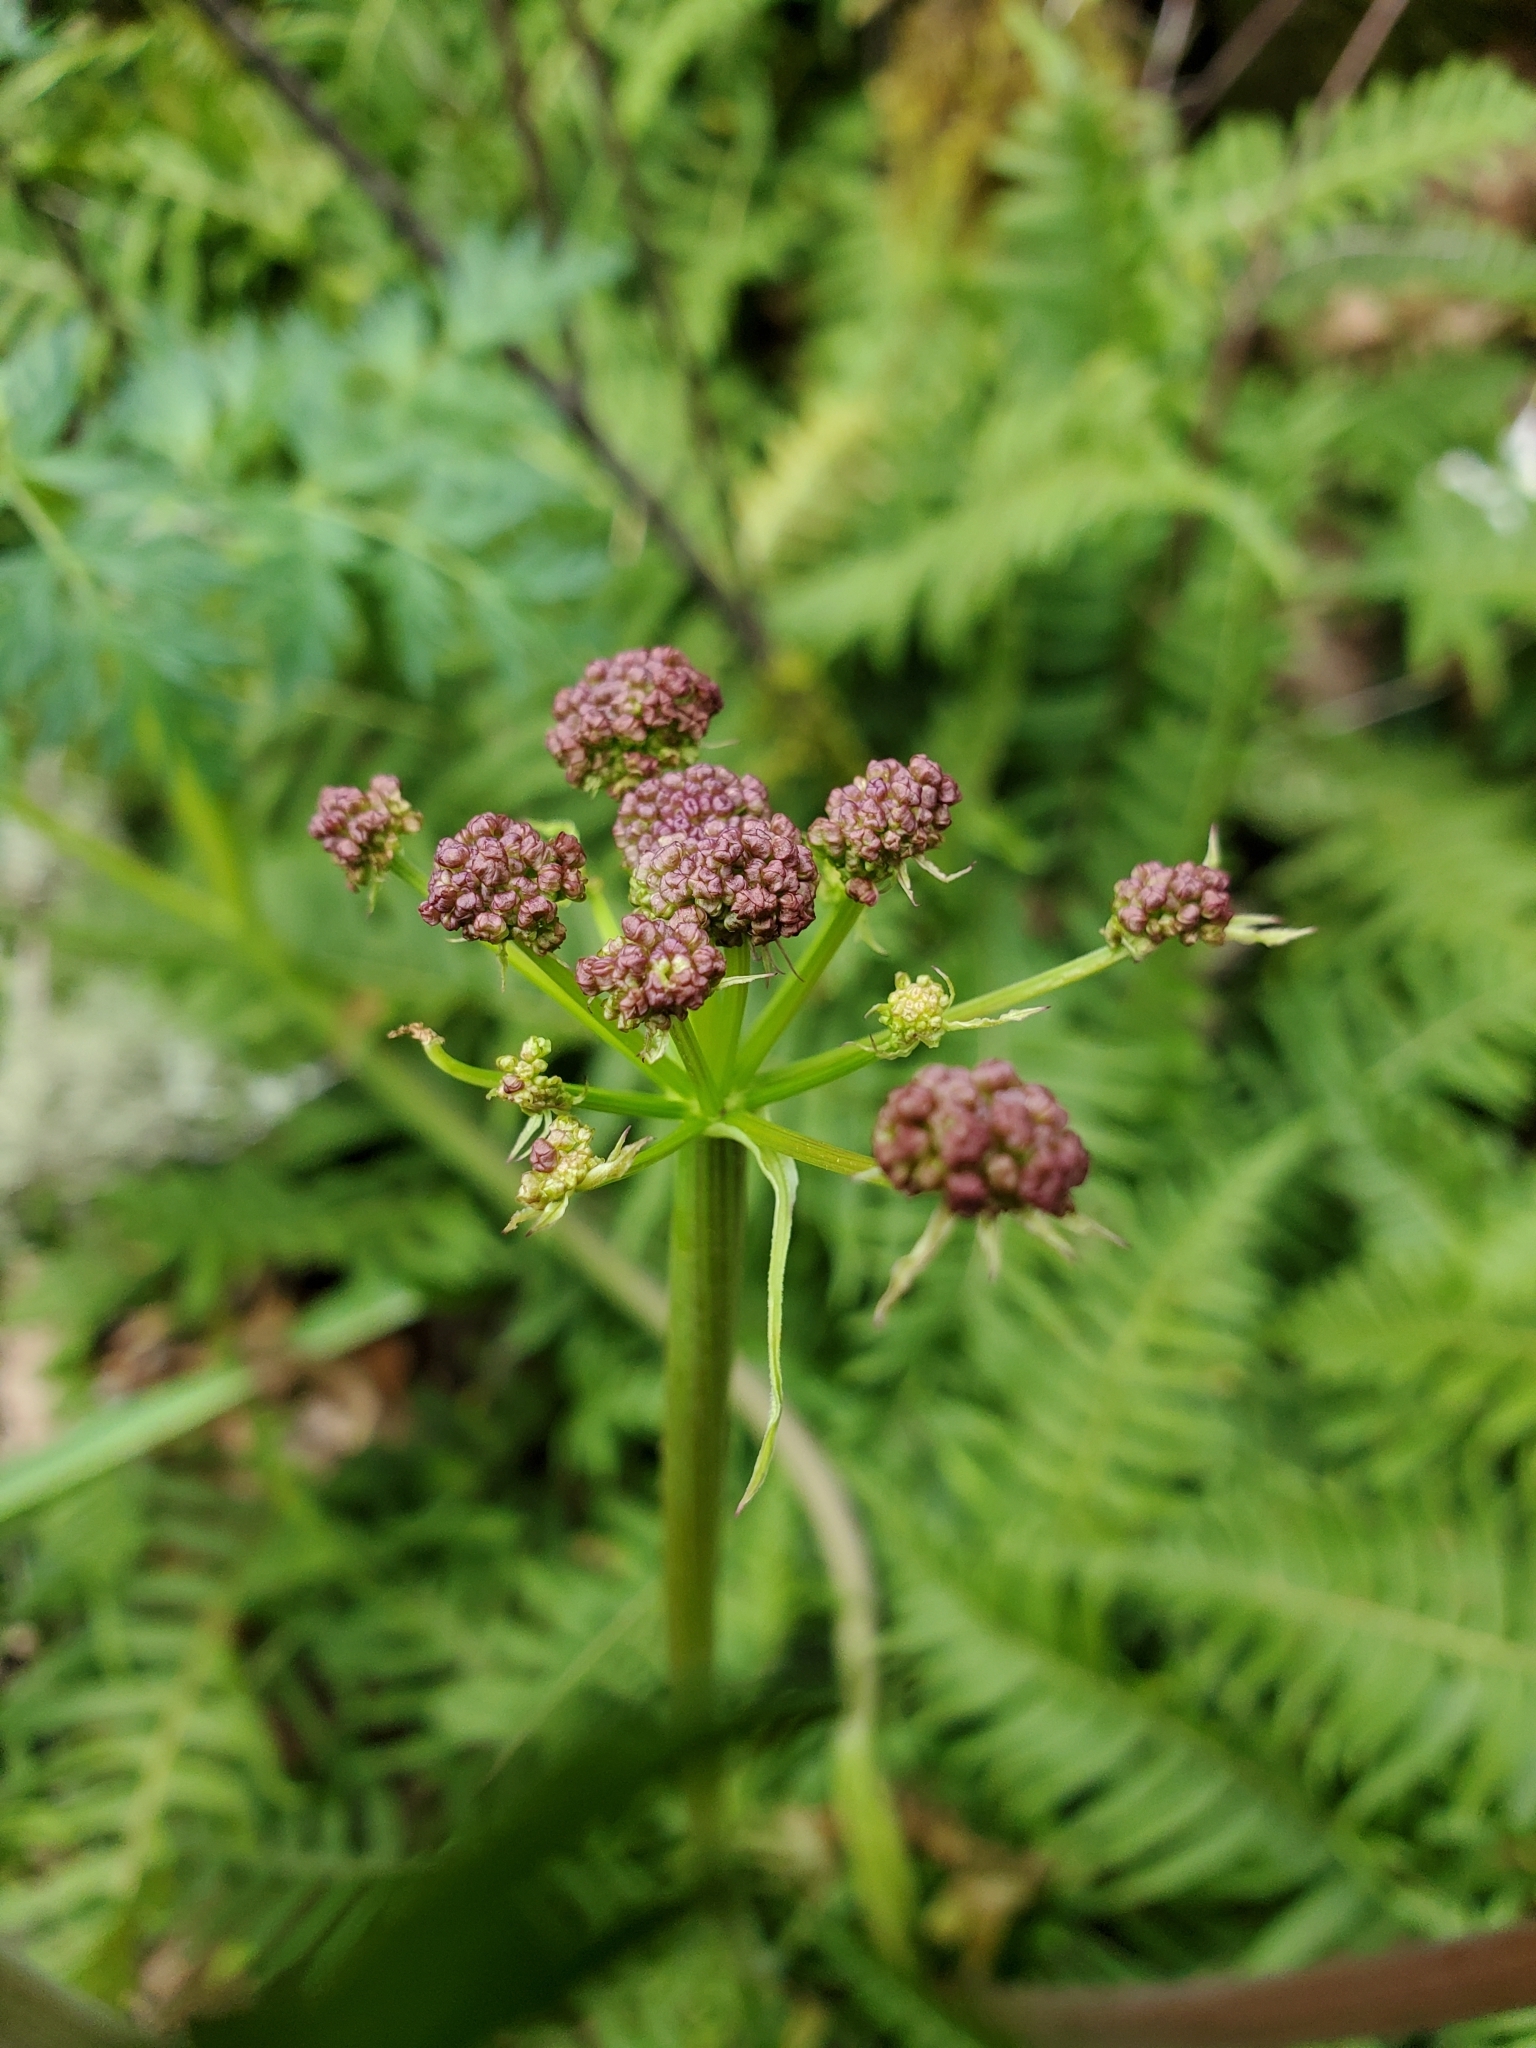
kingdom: Plantae
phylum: Tracheophyta
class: Magnoliopsida
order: Apiales
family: Apiaceae
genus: Lomatium
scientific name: Lomatium dissectum
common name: Lomatium
